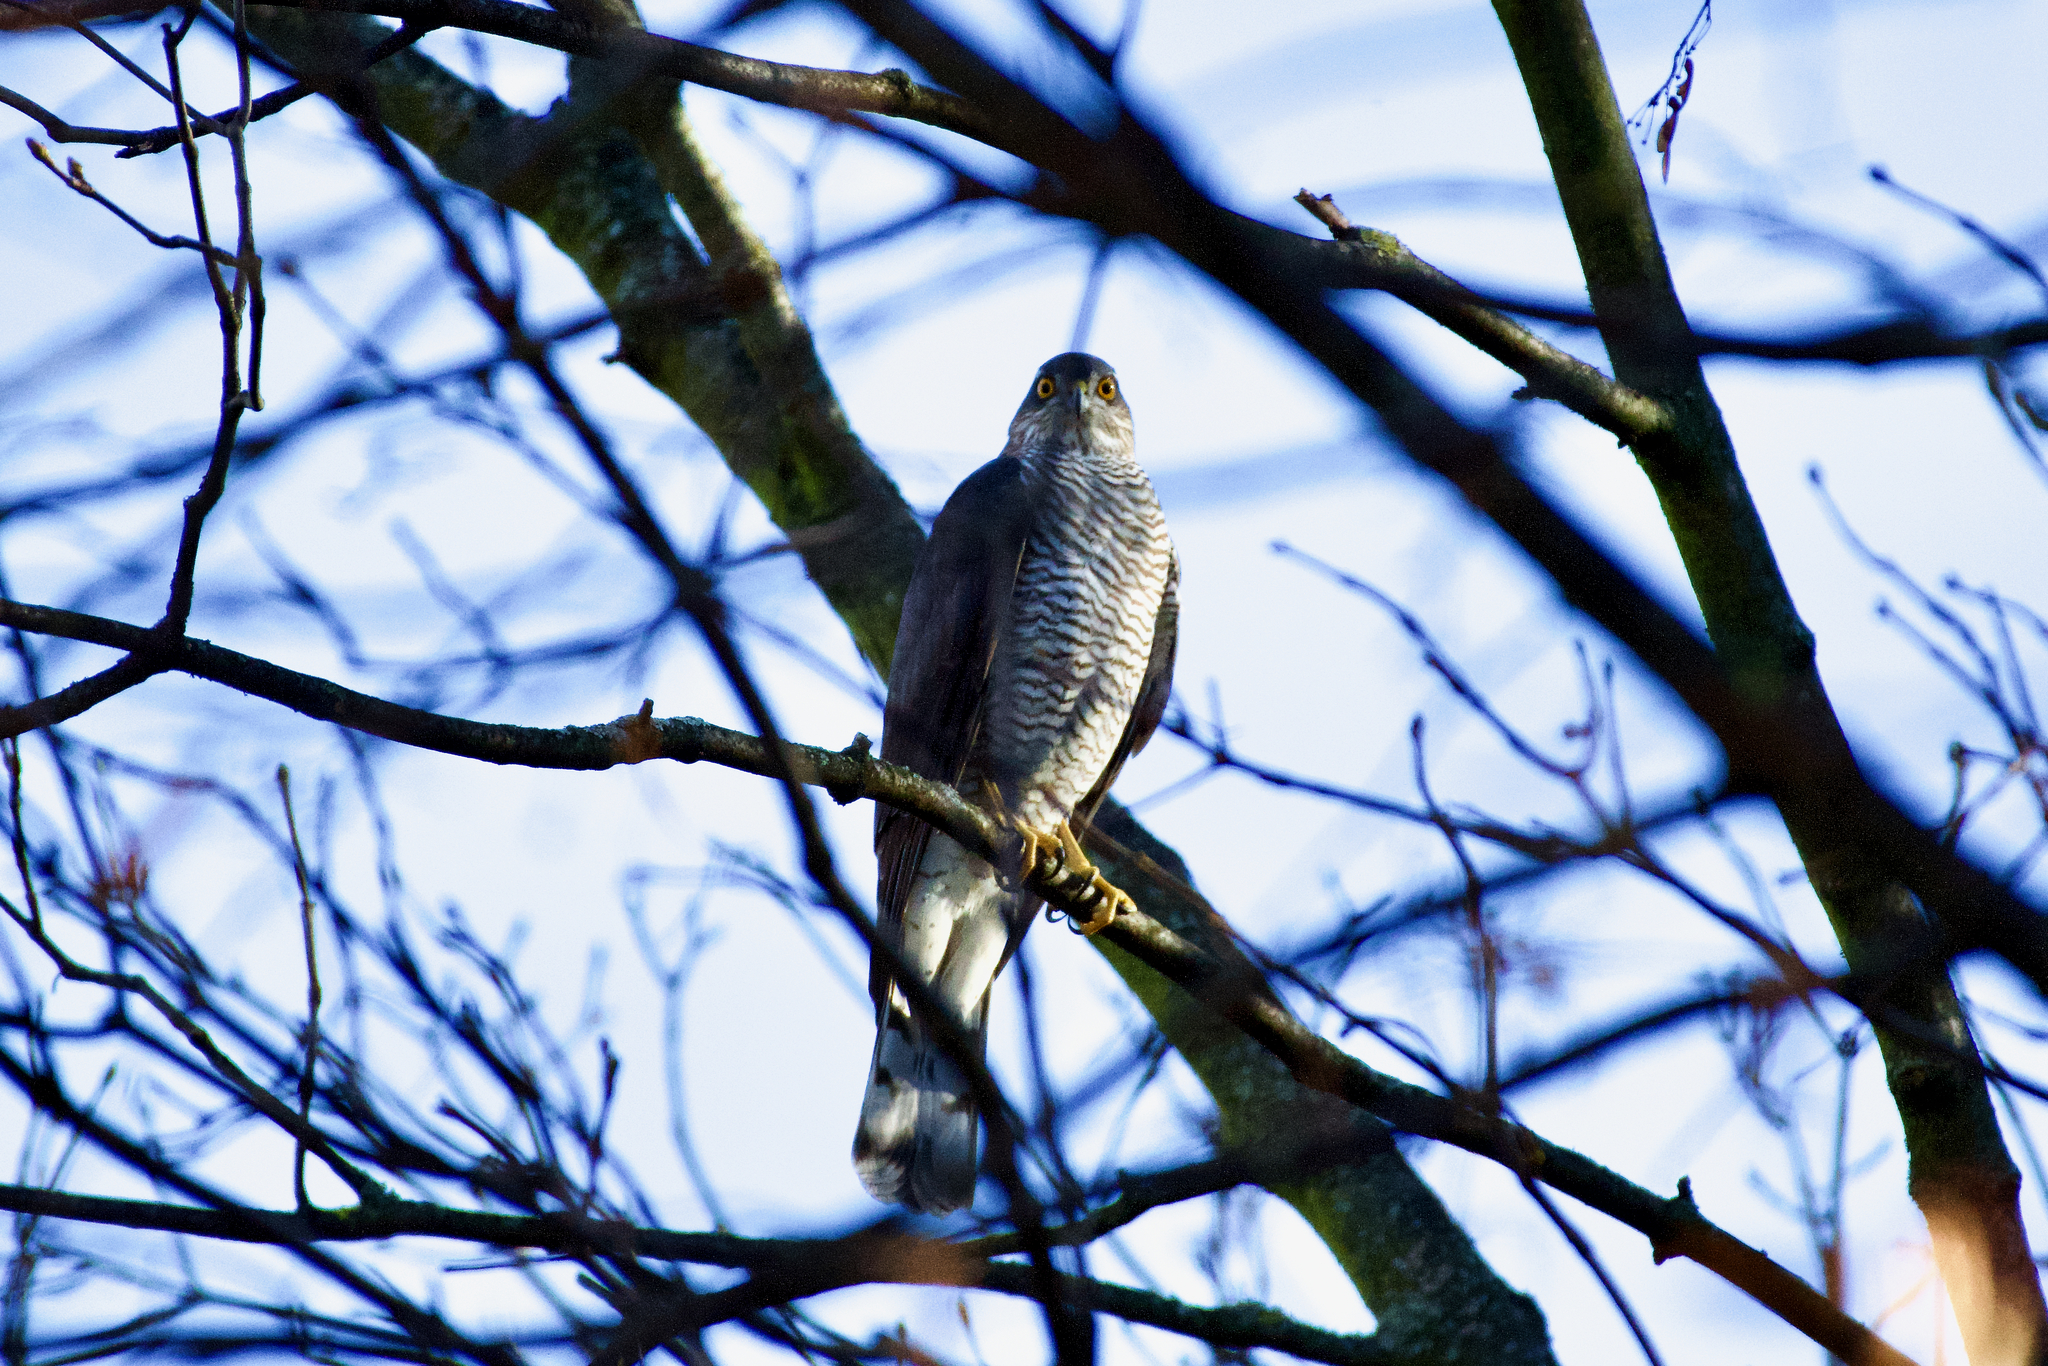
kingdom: Animalia
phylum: Chordata
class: Aves
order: Accipitriformes
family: Accipitridae
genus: Accipiter
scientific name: Accipiter nisus
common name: Eurasian sparrowhawk
